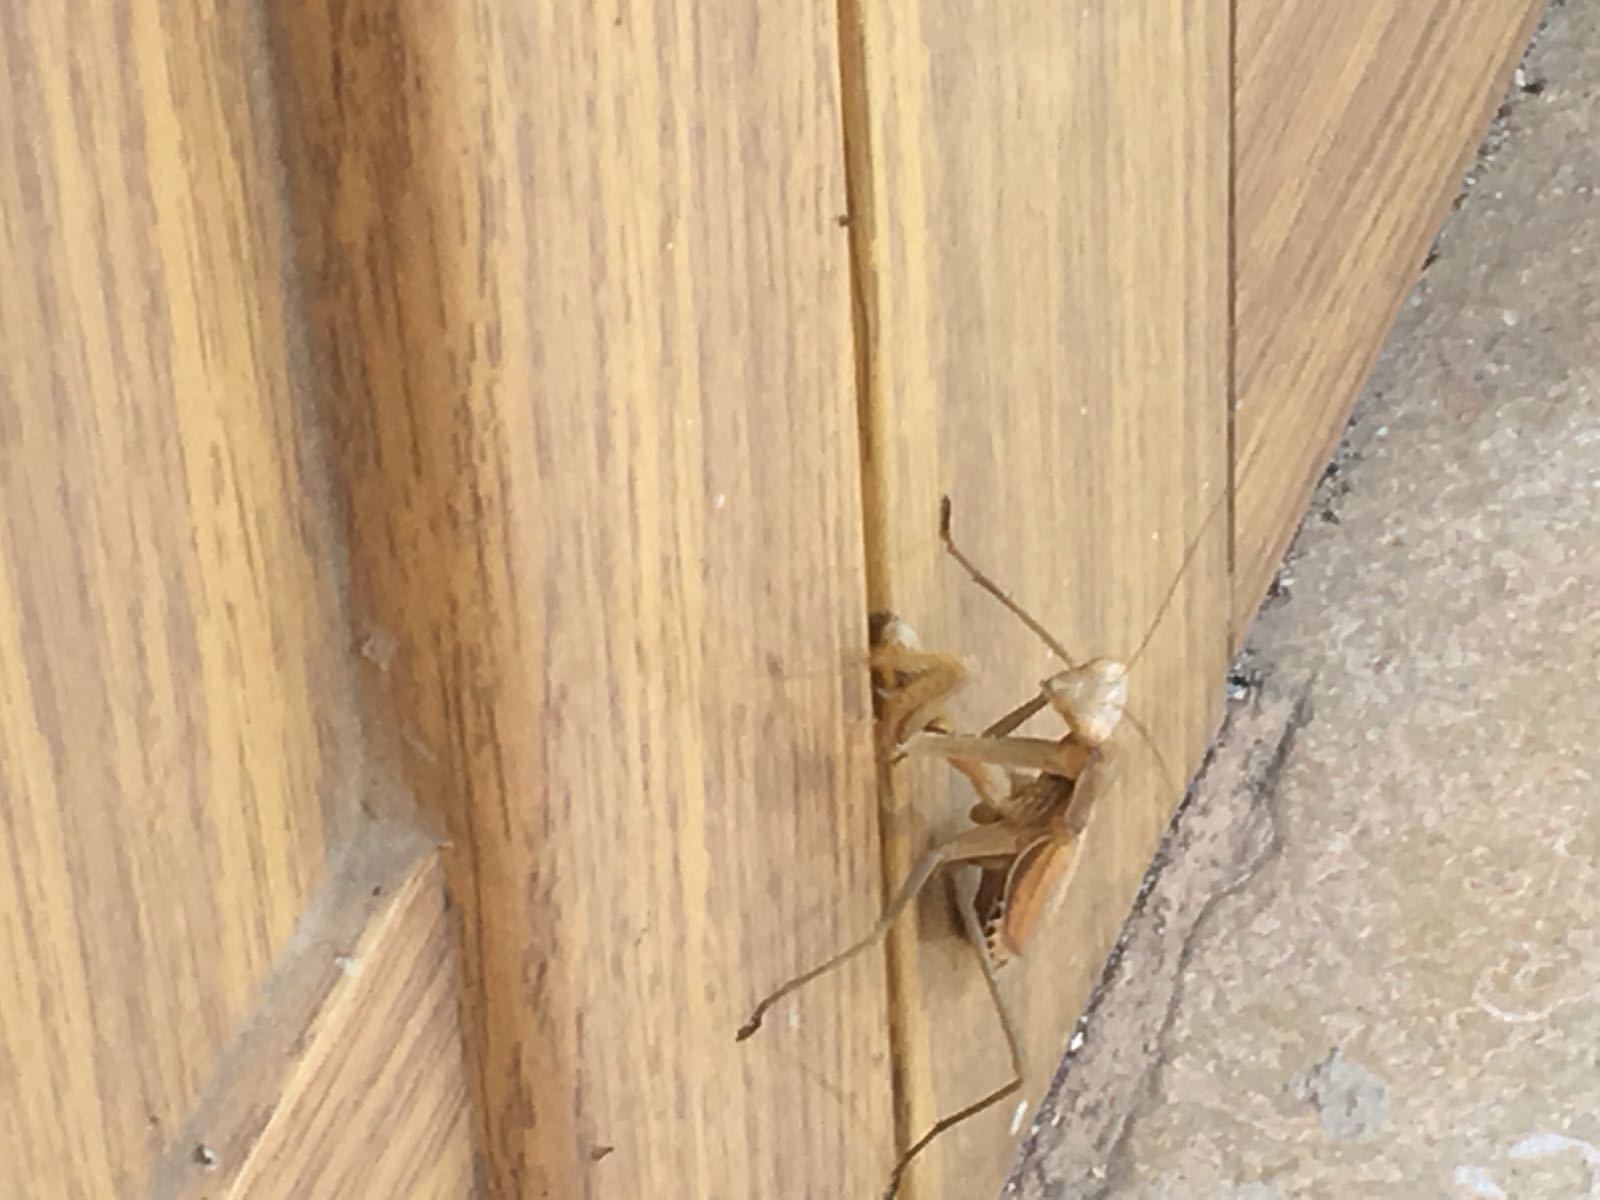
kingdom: Animalia
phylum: Arthropoda
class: Insecta
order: Mantodea
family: Mantidae
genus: Mantis
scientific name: Mantis religiosa
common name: Praying mantis
